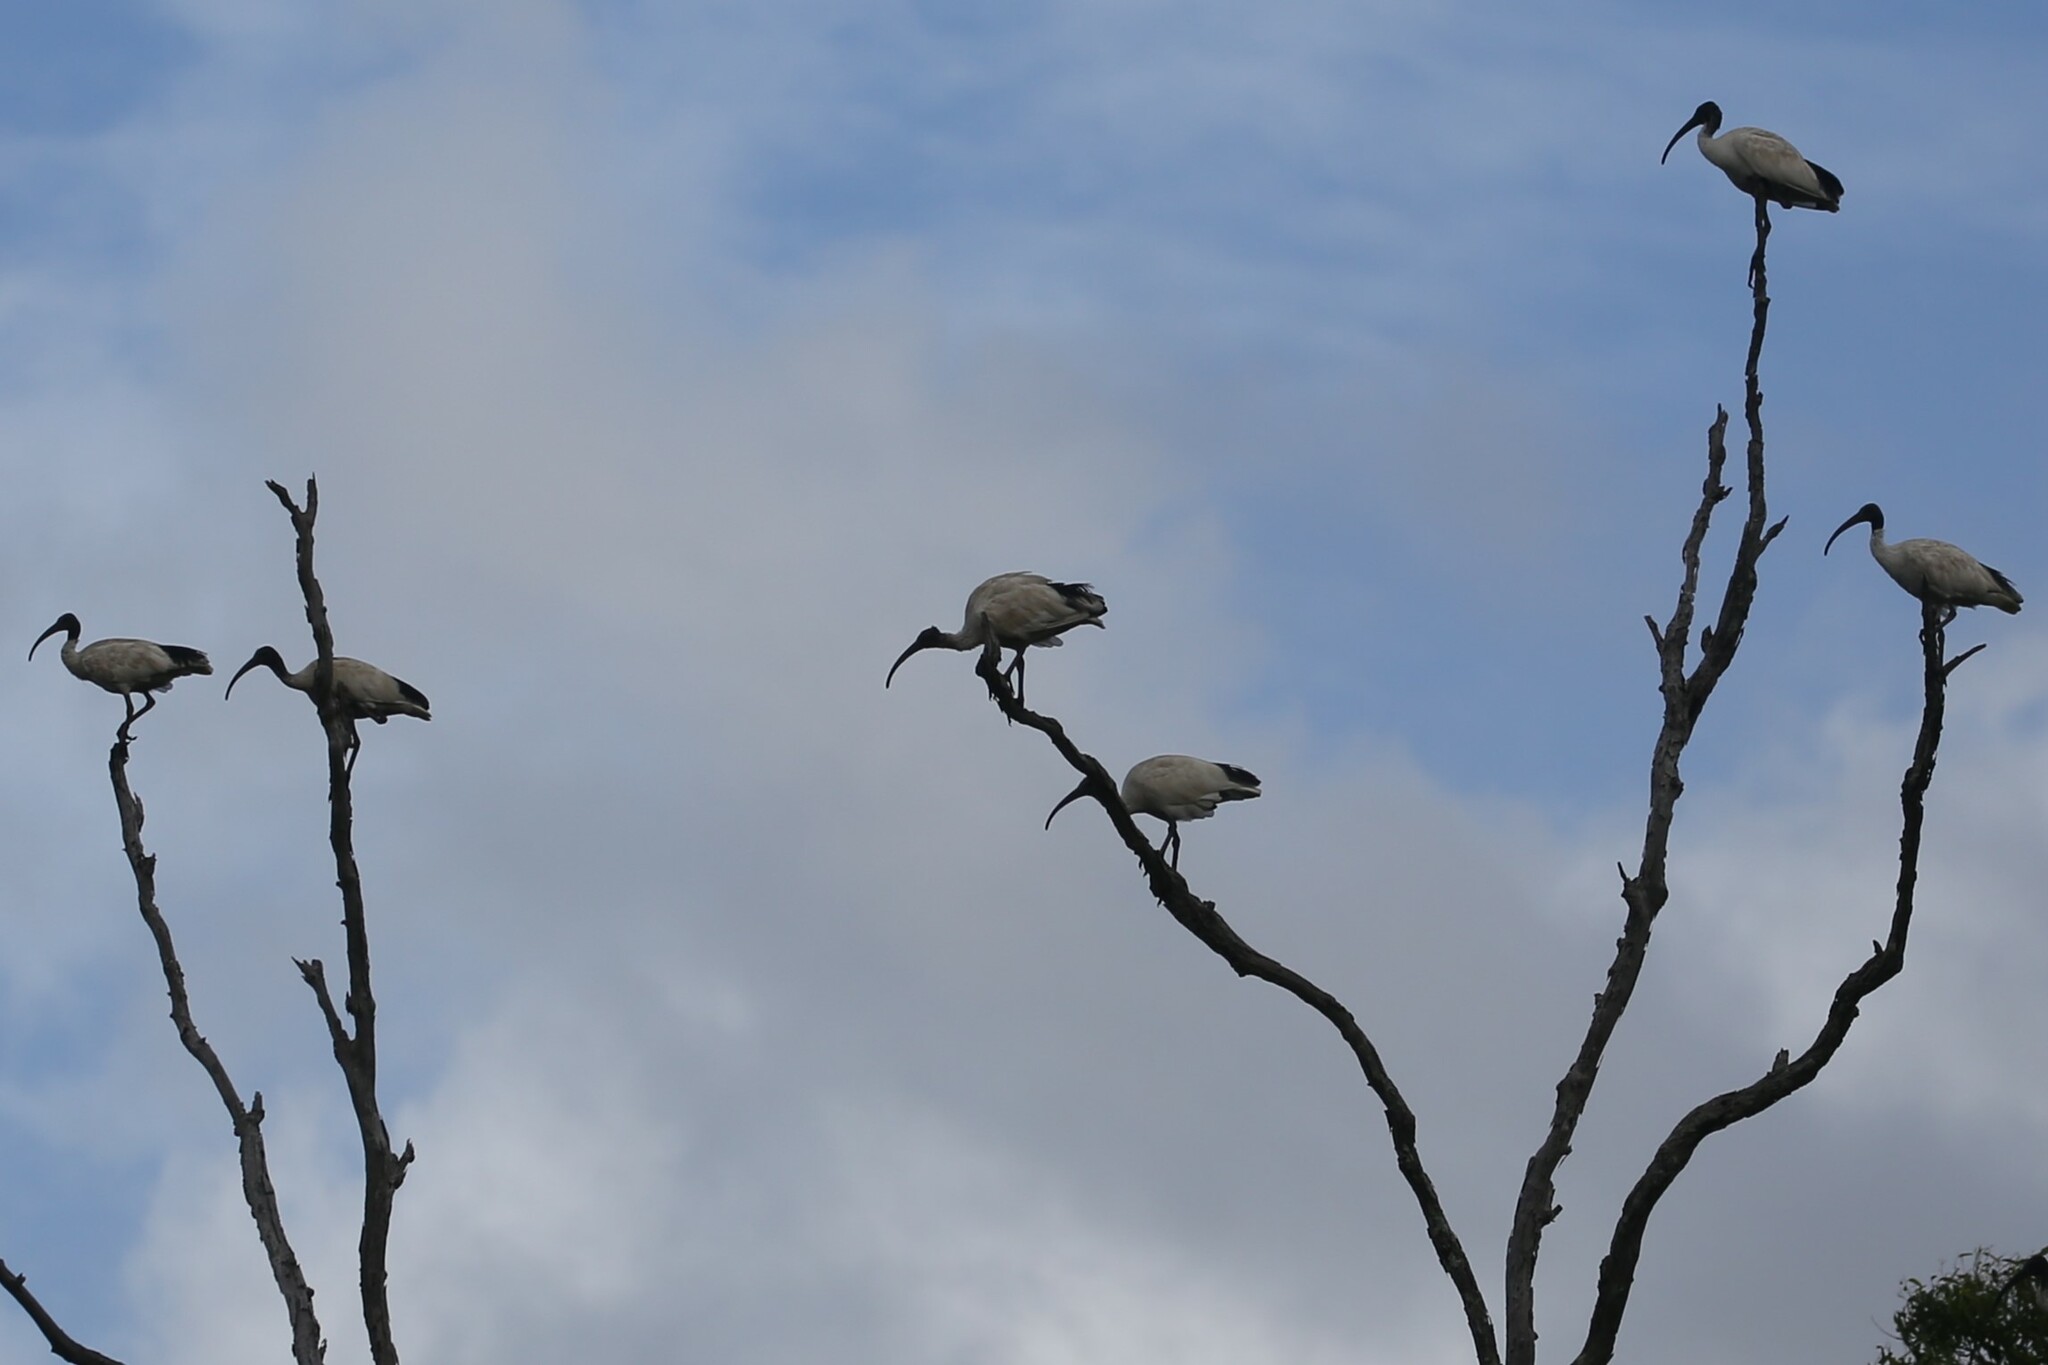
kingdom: Animalia
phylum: Chordata
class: Aves
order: Pelecaniformes
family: Threskiornithidae
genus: Threskiornis
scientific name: Threskiornis molucca
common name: Australian white ibis
